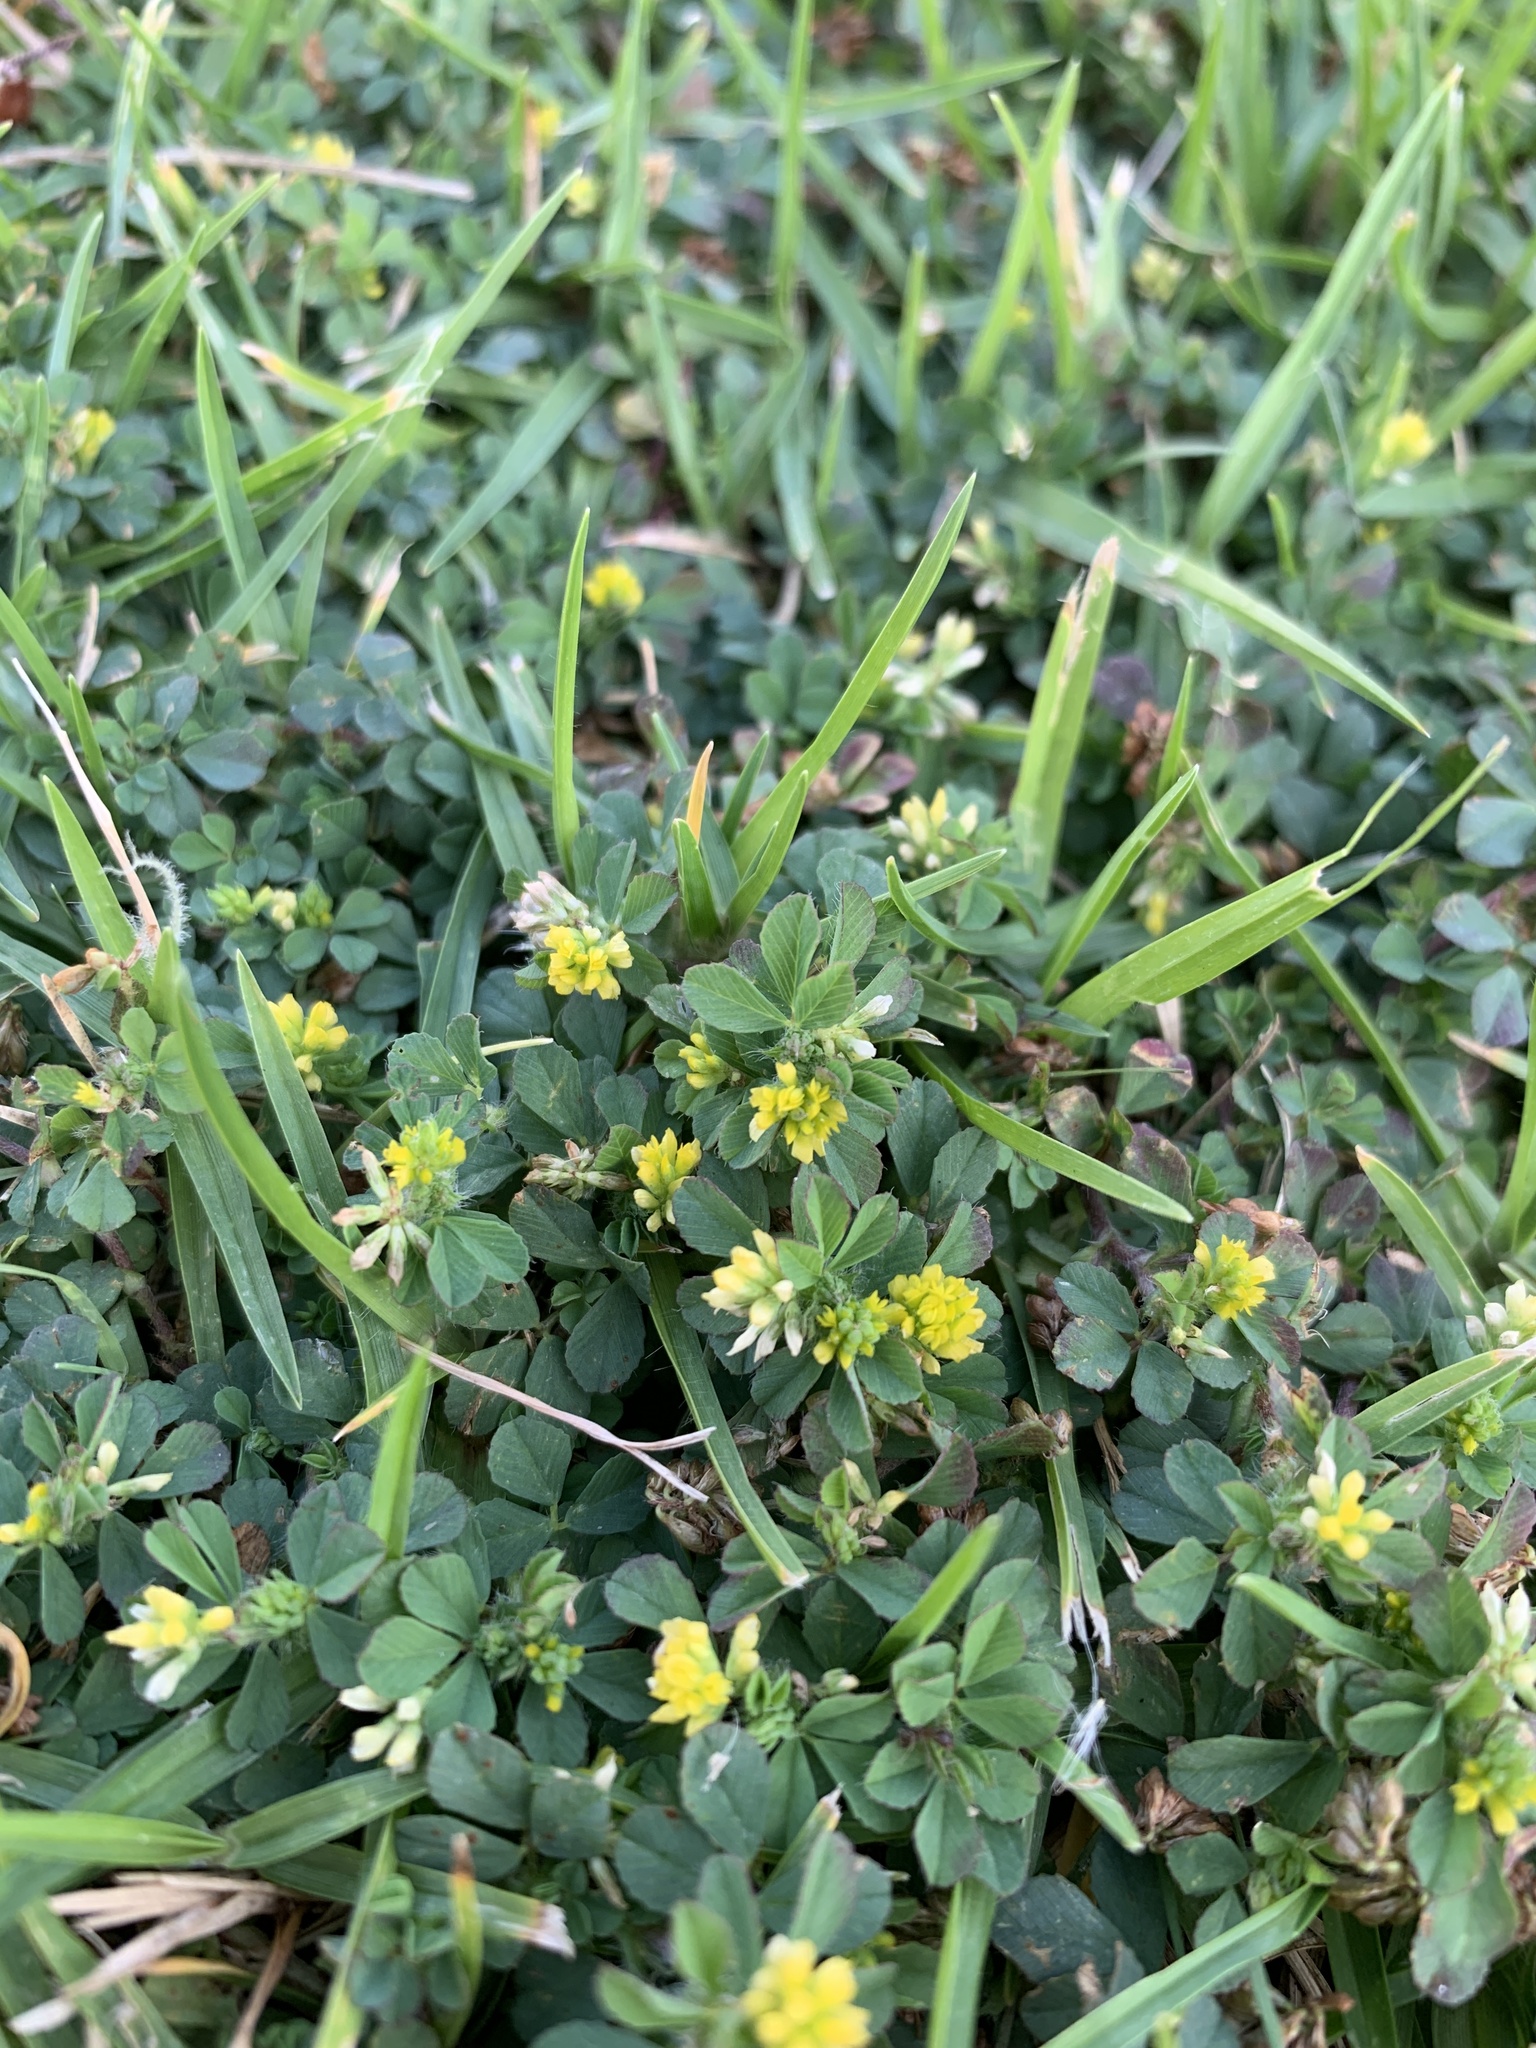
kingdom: Plantae
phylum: Tracheophyta
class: Magnoliopsida
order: Fabales
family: Fabaceae
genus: Medicago
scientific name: Medicago lupulina
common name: Black medick
